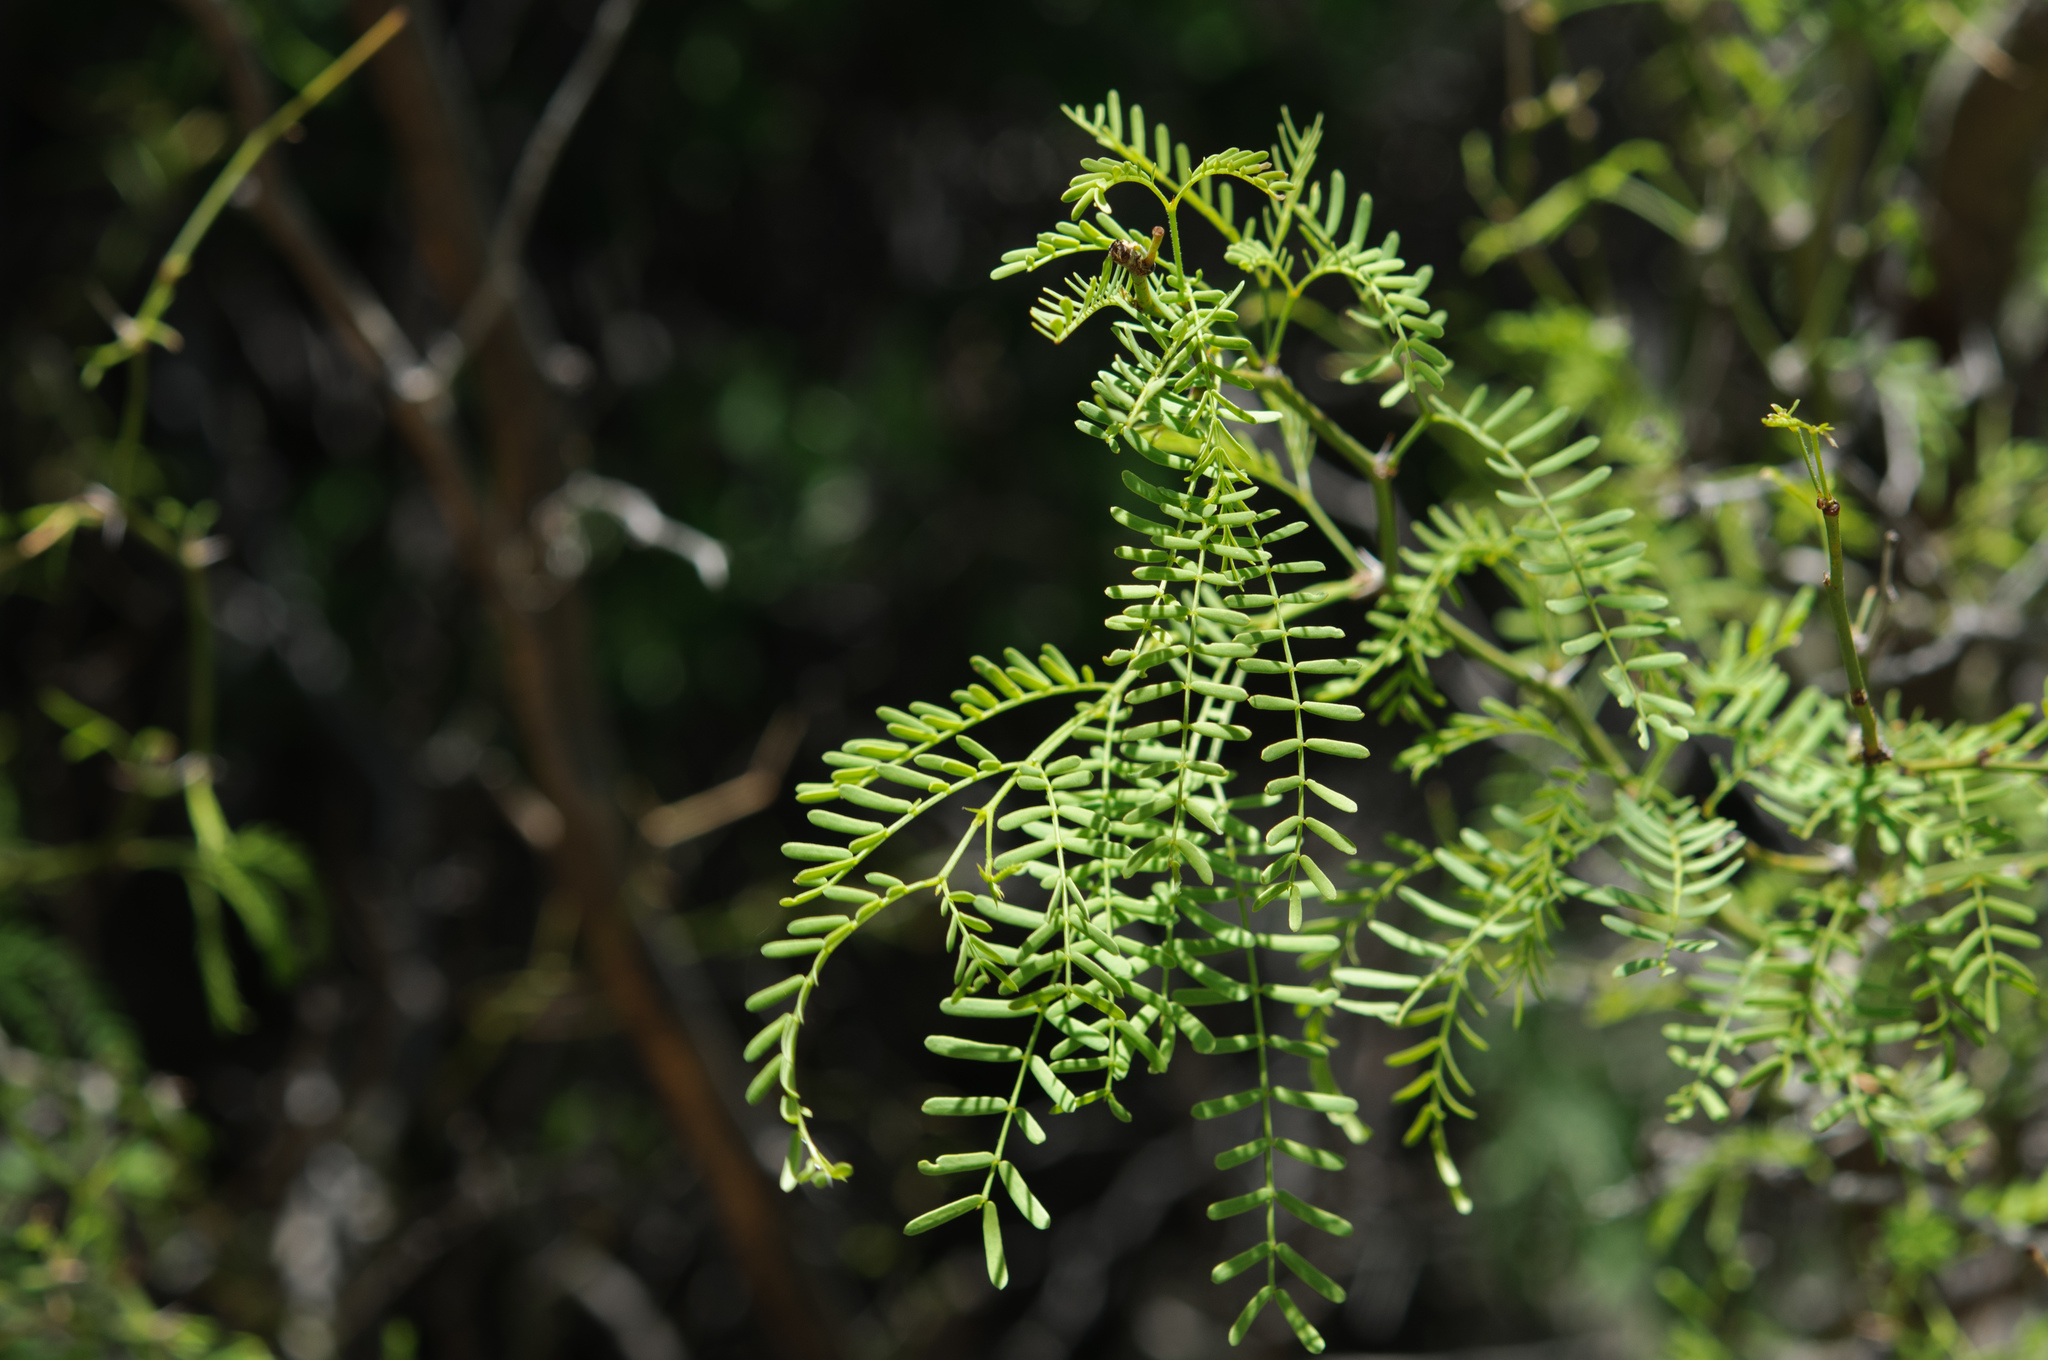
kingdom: Plantae
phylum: Tracheophyta
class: Magnoliopsida
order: Fabales
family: Fabaceae
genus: Prosopis
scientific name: Prosopis pubescens
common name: Screw-bean
